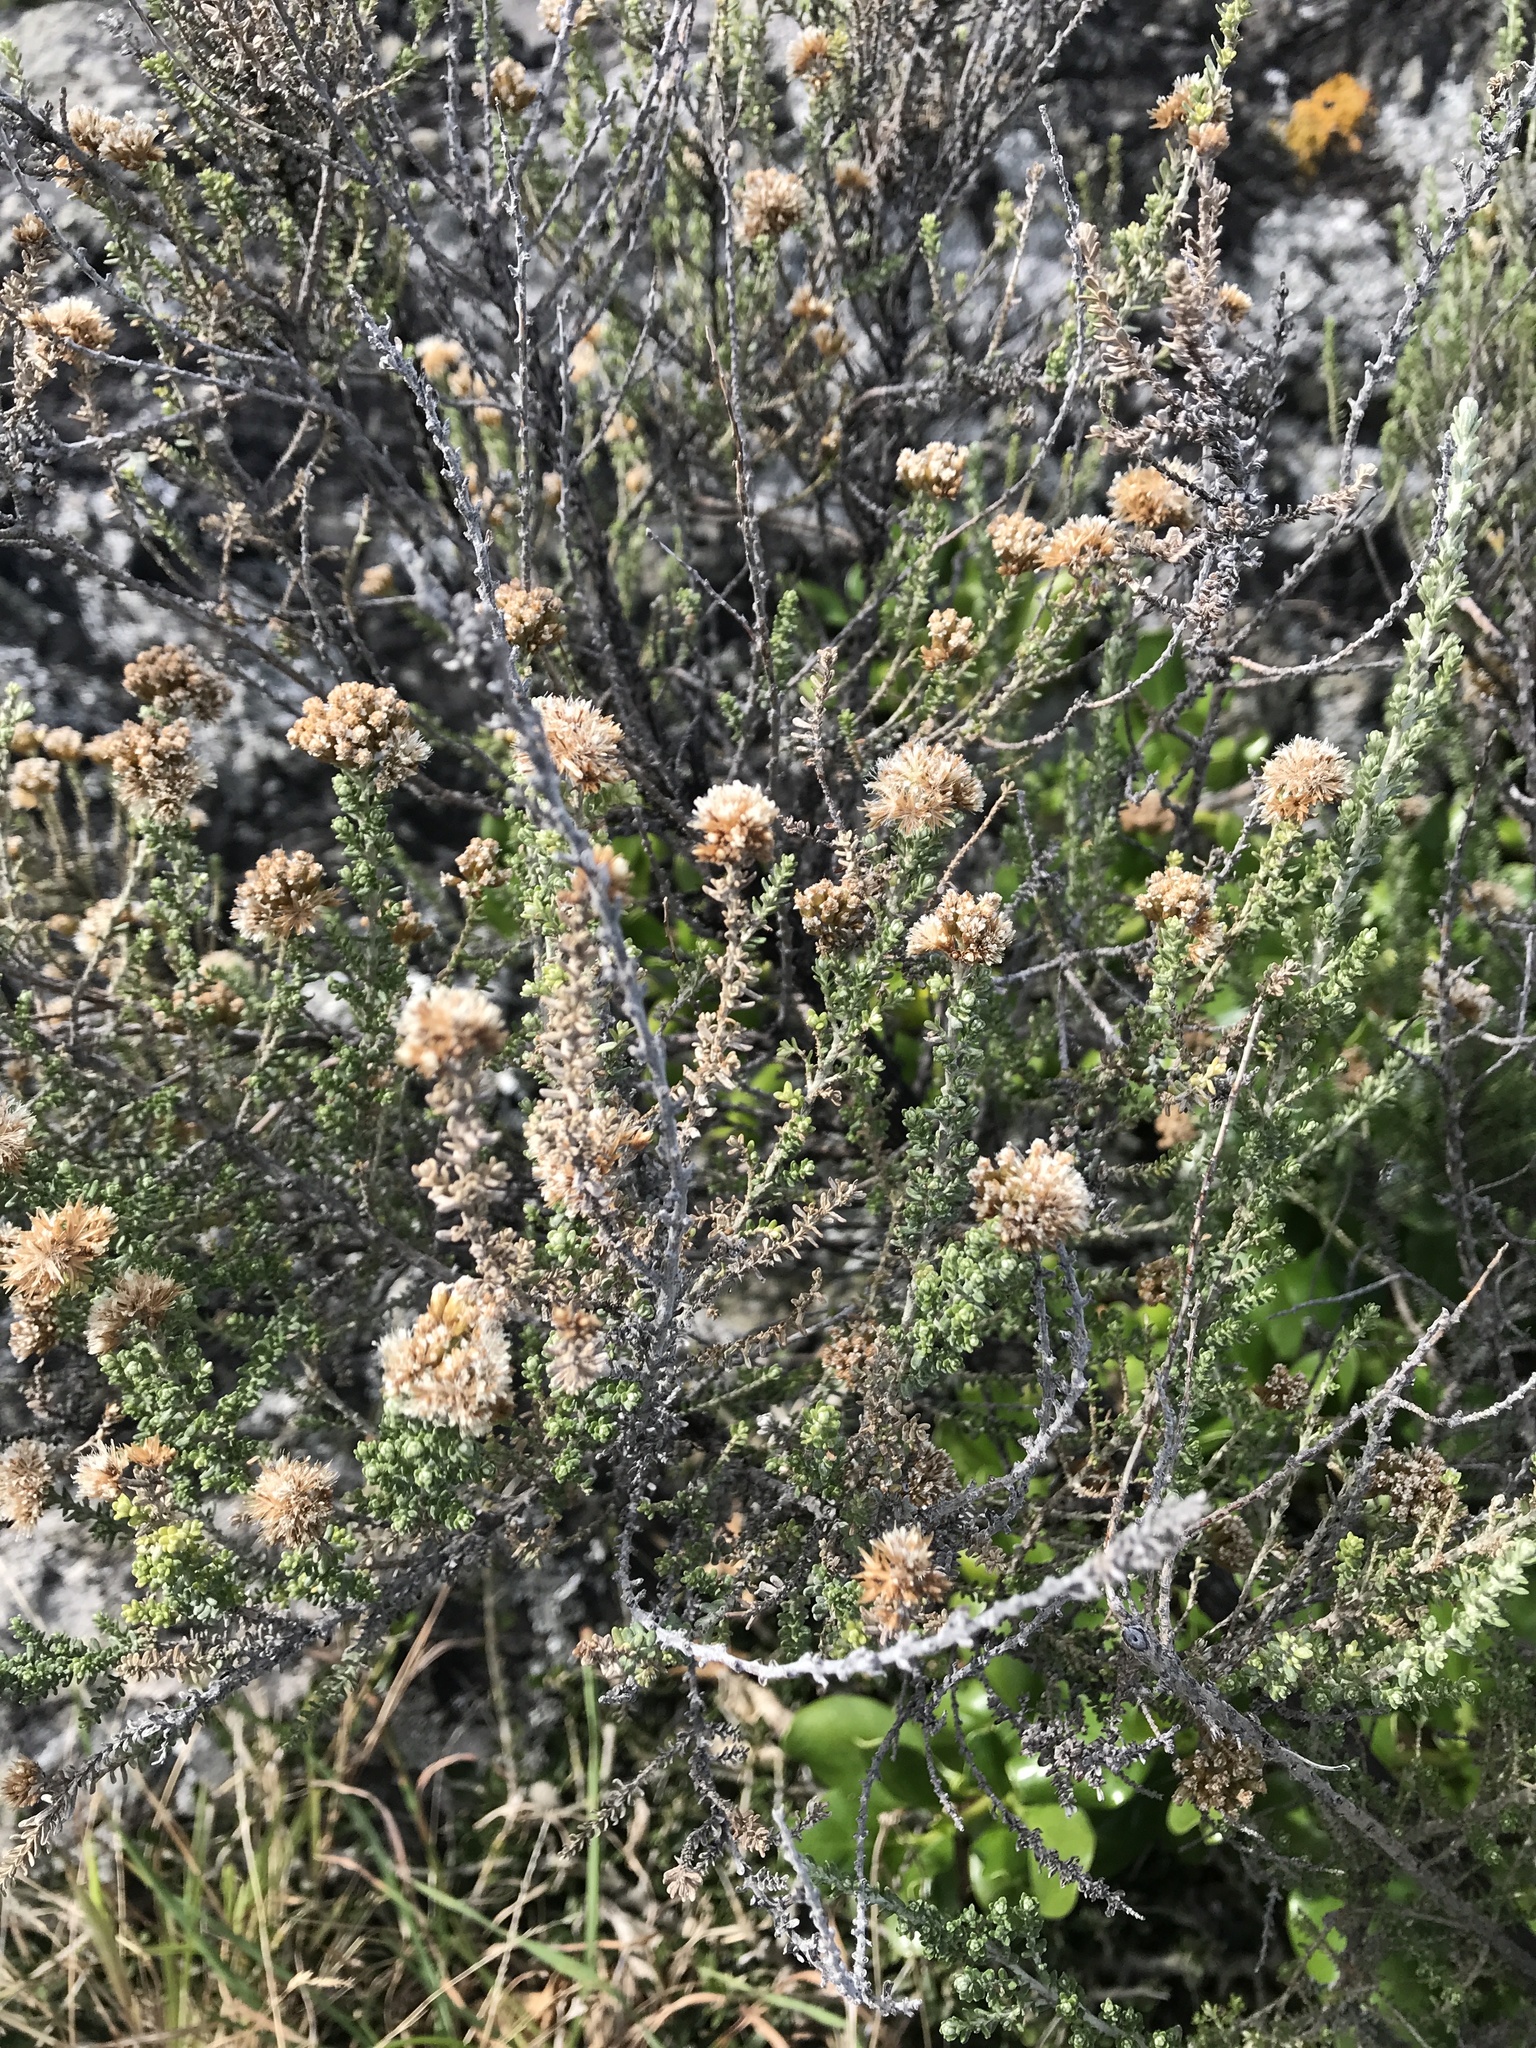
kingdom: Plantae
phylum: Tracheophyta
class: Magnoliopsida
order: Asterales
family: Asteraceae
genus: Ozothamnus
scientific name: Ozothamnus leptophyllus
